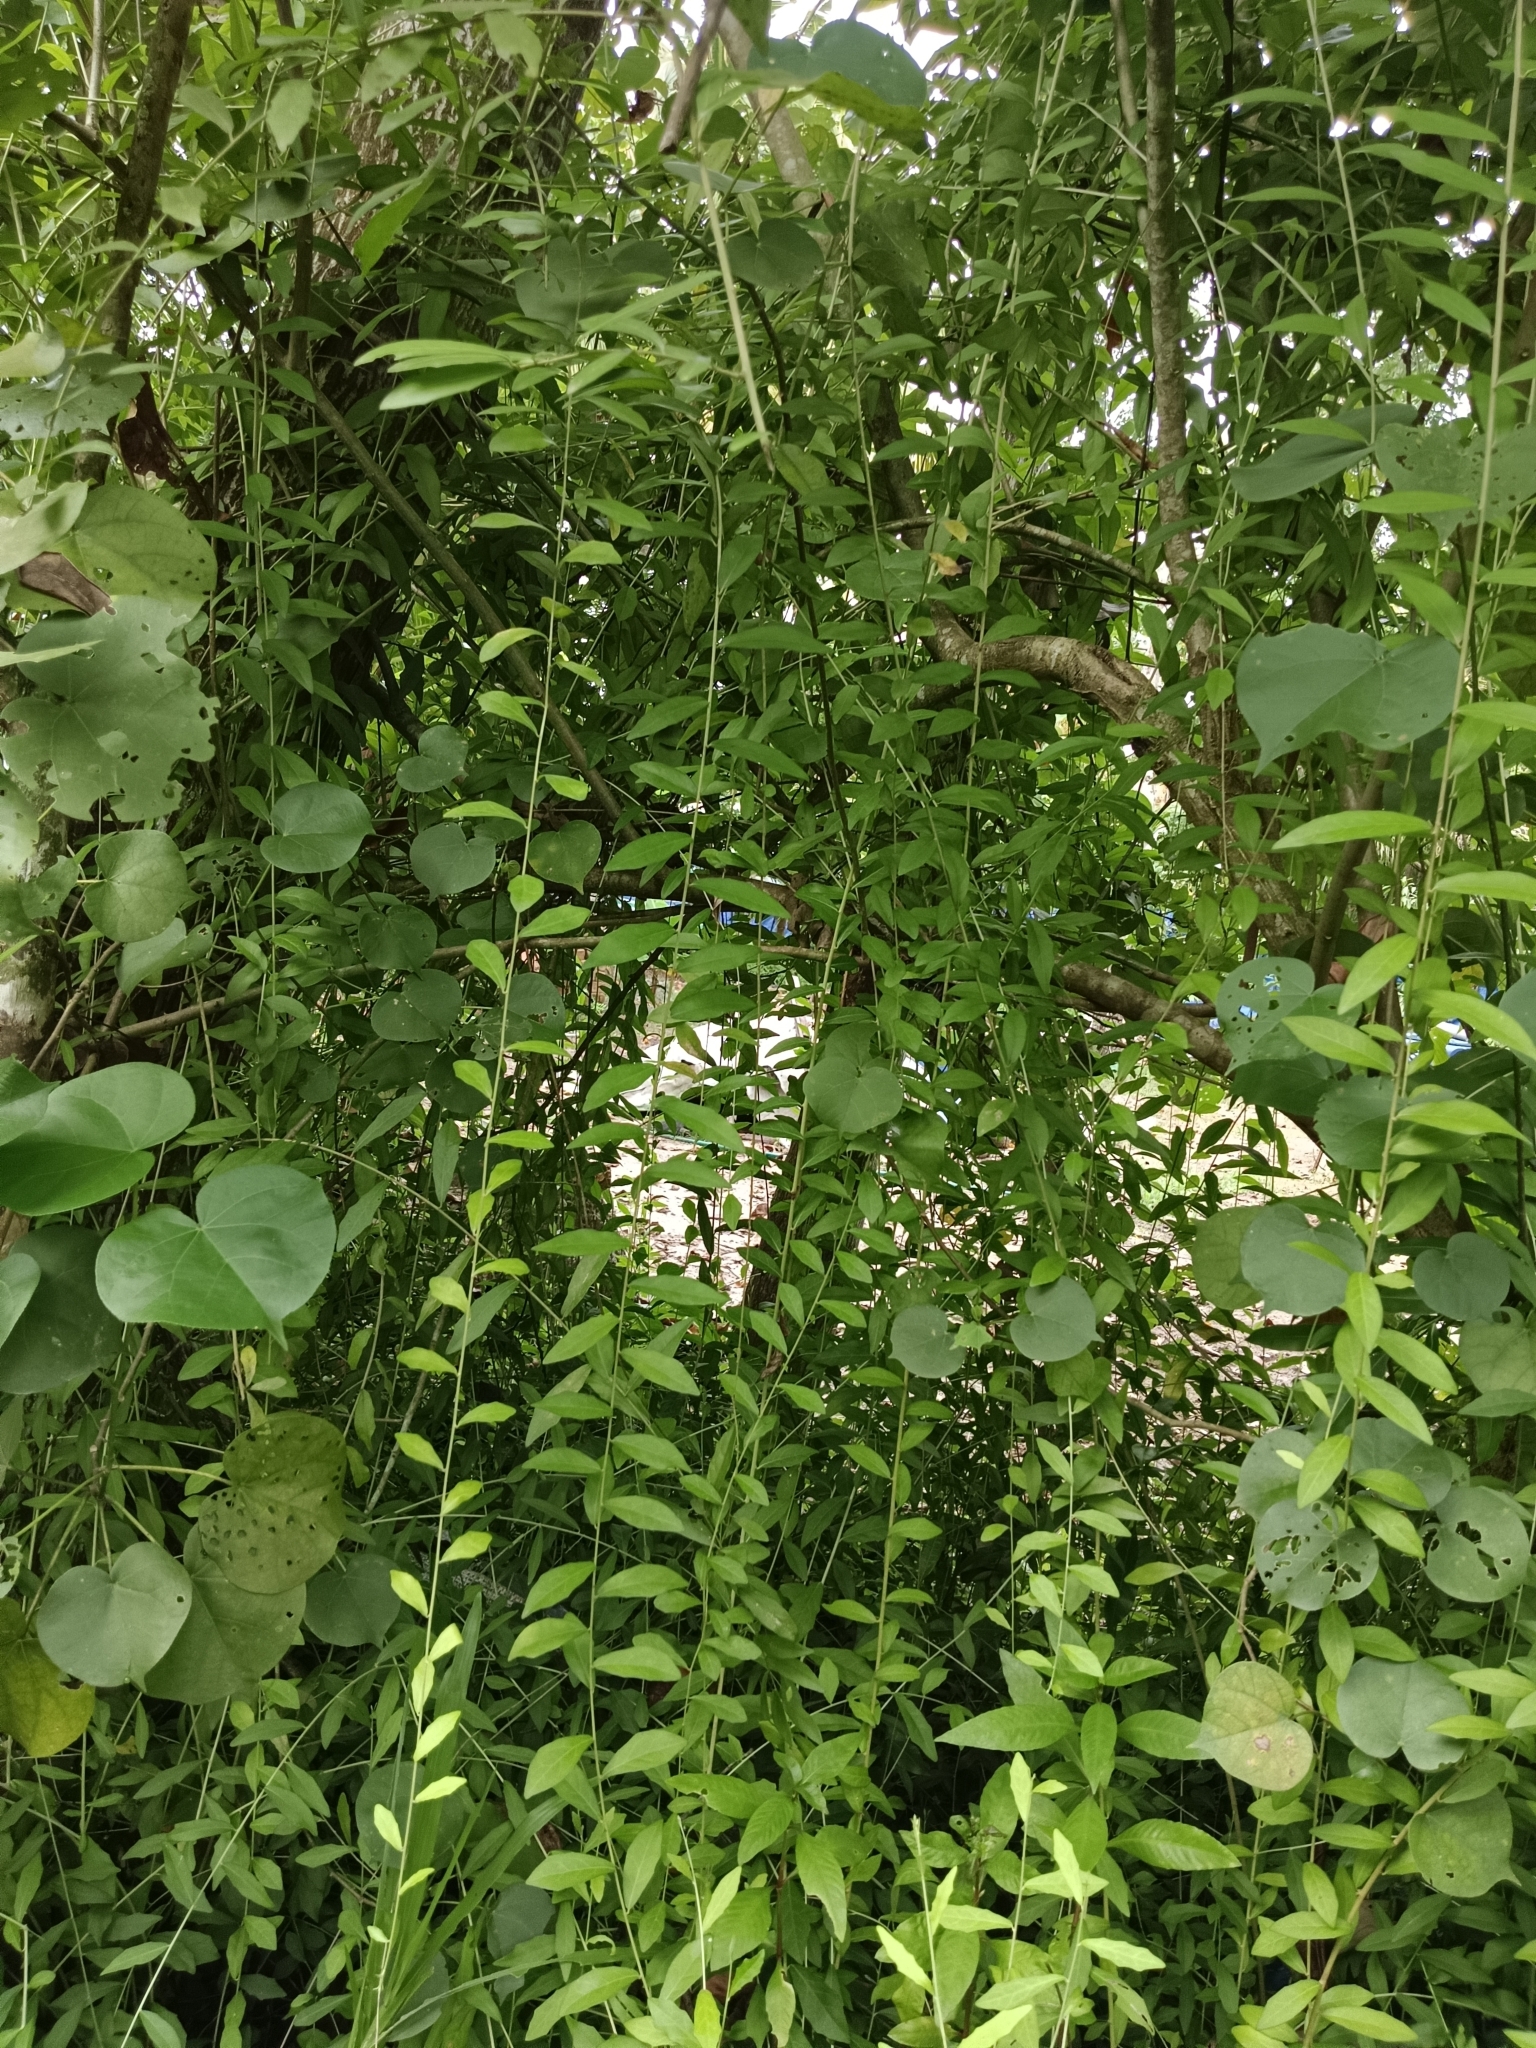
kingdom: Plantae
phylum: Tracheophyta
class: Magnoliopsida
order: Asterales
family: Asteraceae
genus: Tarlmounia
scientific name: Tarlmounia elliptica
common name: Kheua sa lot
